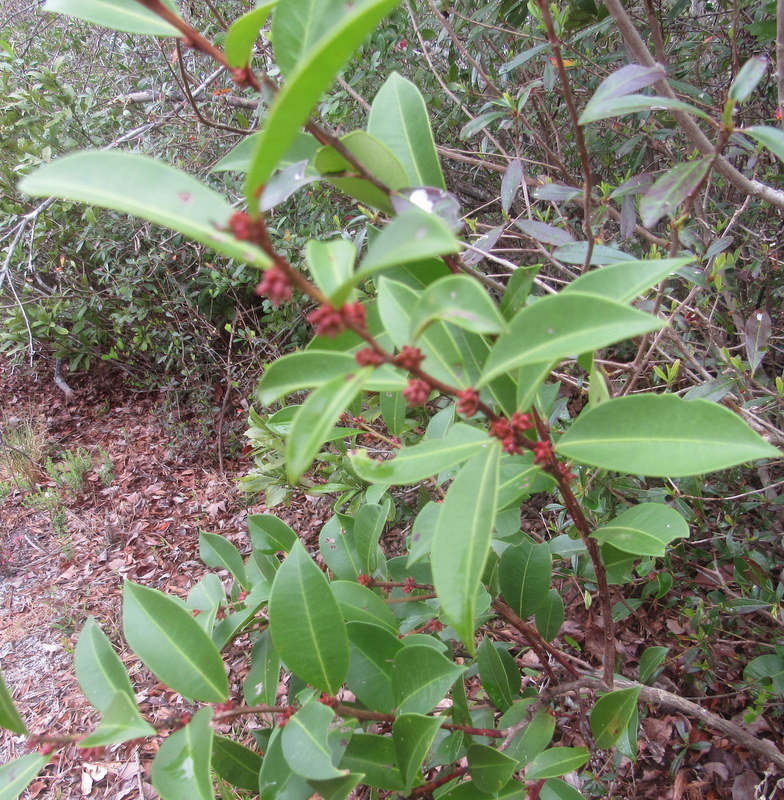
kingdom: Plantae
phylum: Tracheophyta
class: Magnoliopsida
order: Ericales
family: Ericaceae
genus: Lyonia
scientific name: Lyonia lucida
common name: Fetterbush
